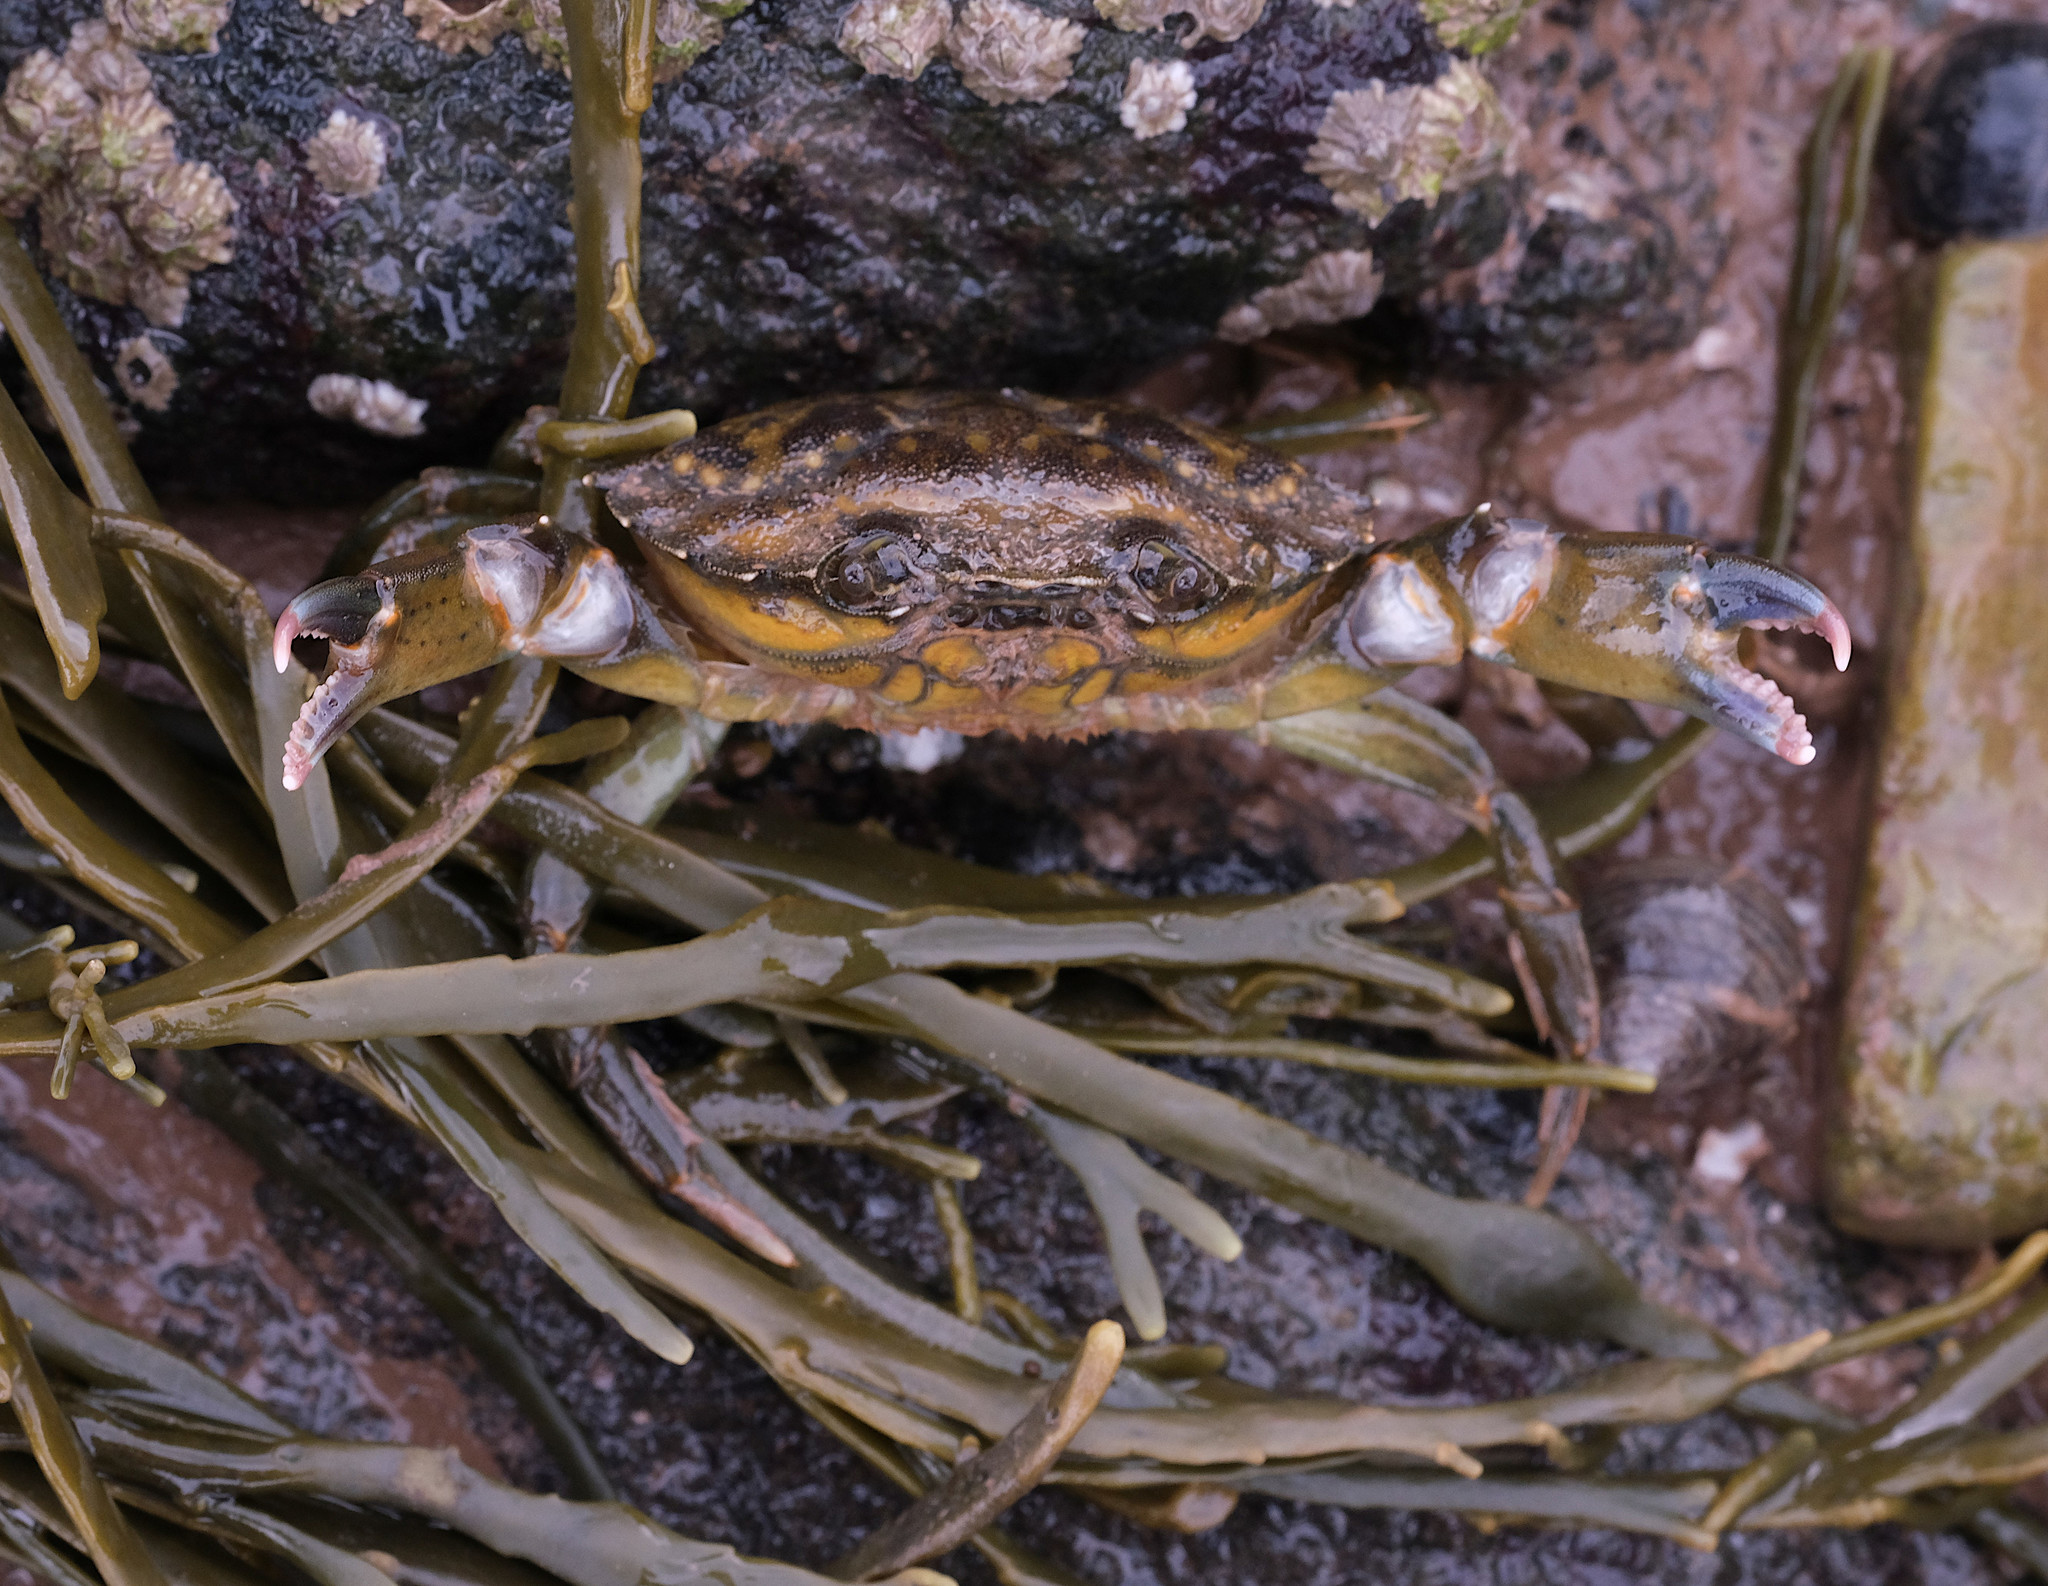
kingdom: Animalia
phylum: Arthropoda
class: Malacostraca
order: Decapoda
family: Carcinidae
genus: Carcinus
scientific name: Carcinus maenas
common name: European green crab
